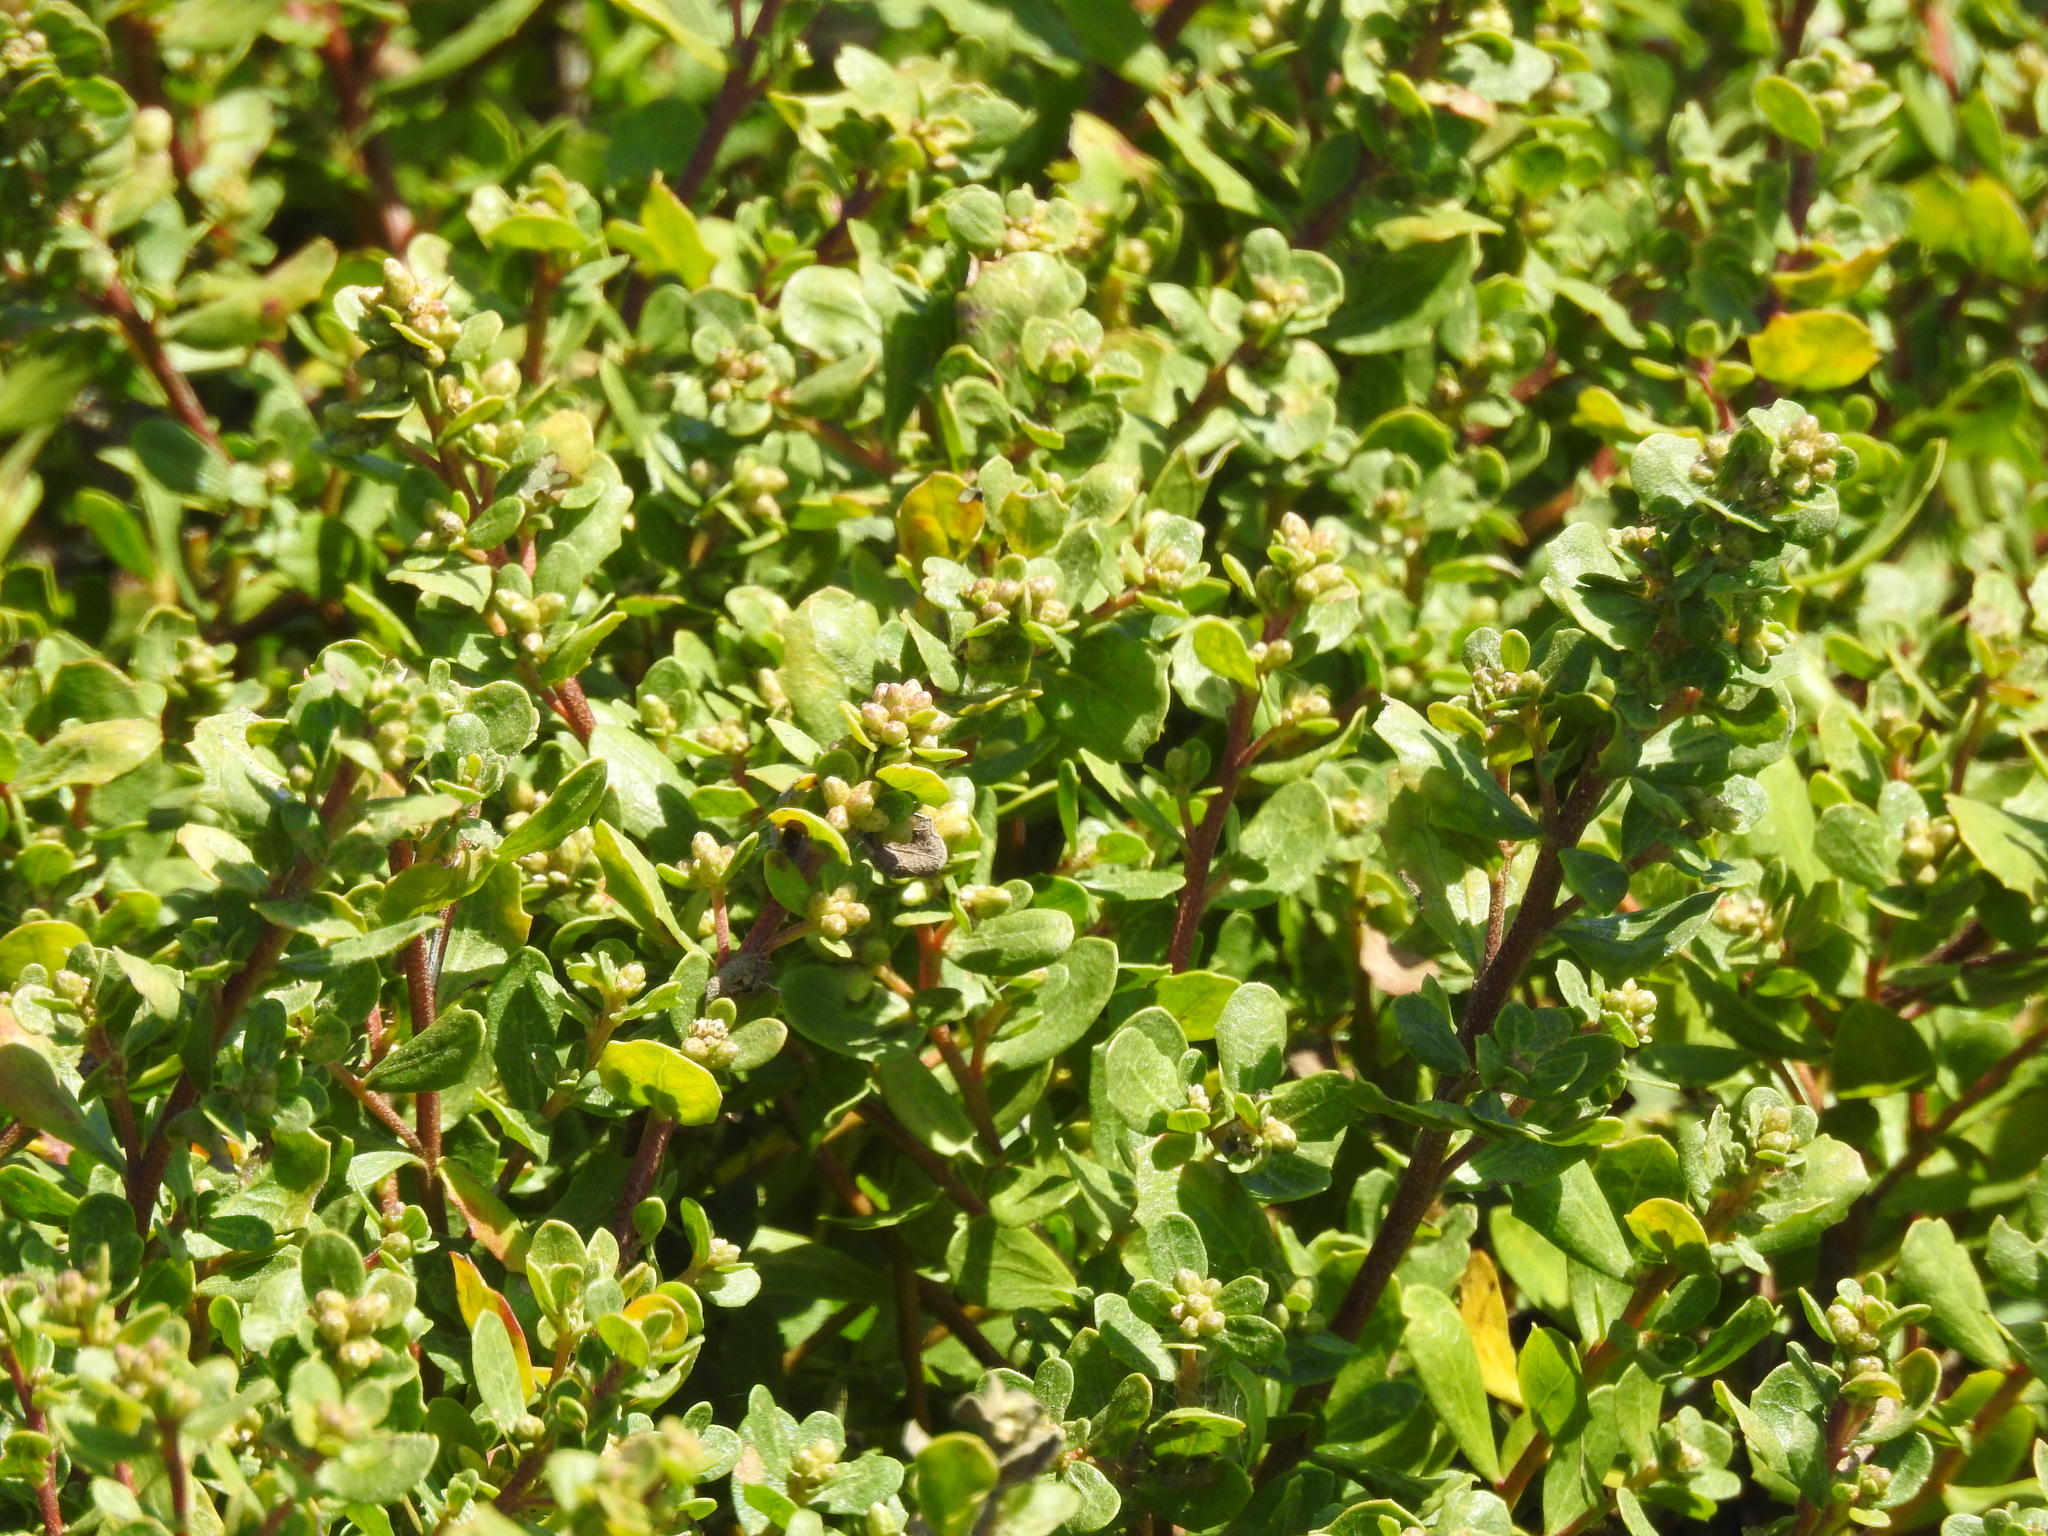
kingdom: Plantae
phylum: Tracheophyta
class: Magnoliopsida
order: Asterales
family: Asteraceae
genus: Baccharis
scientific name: Baccharis pilularis
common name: Coyotebrush
